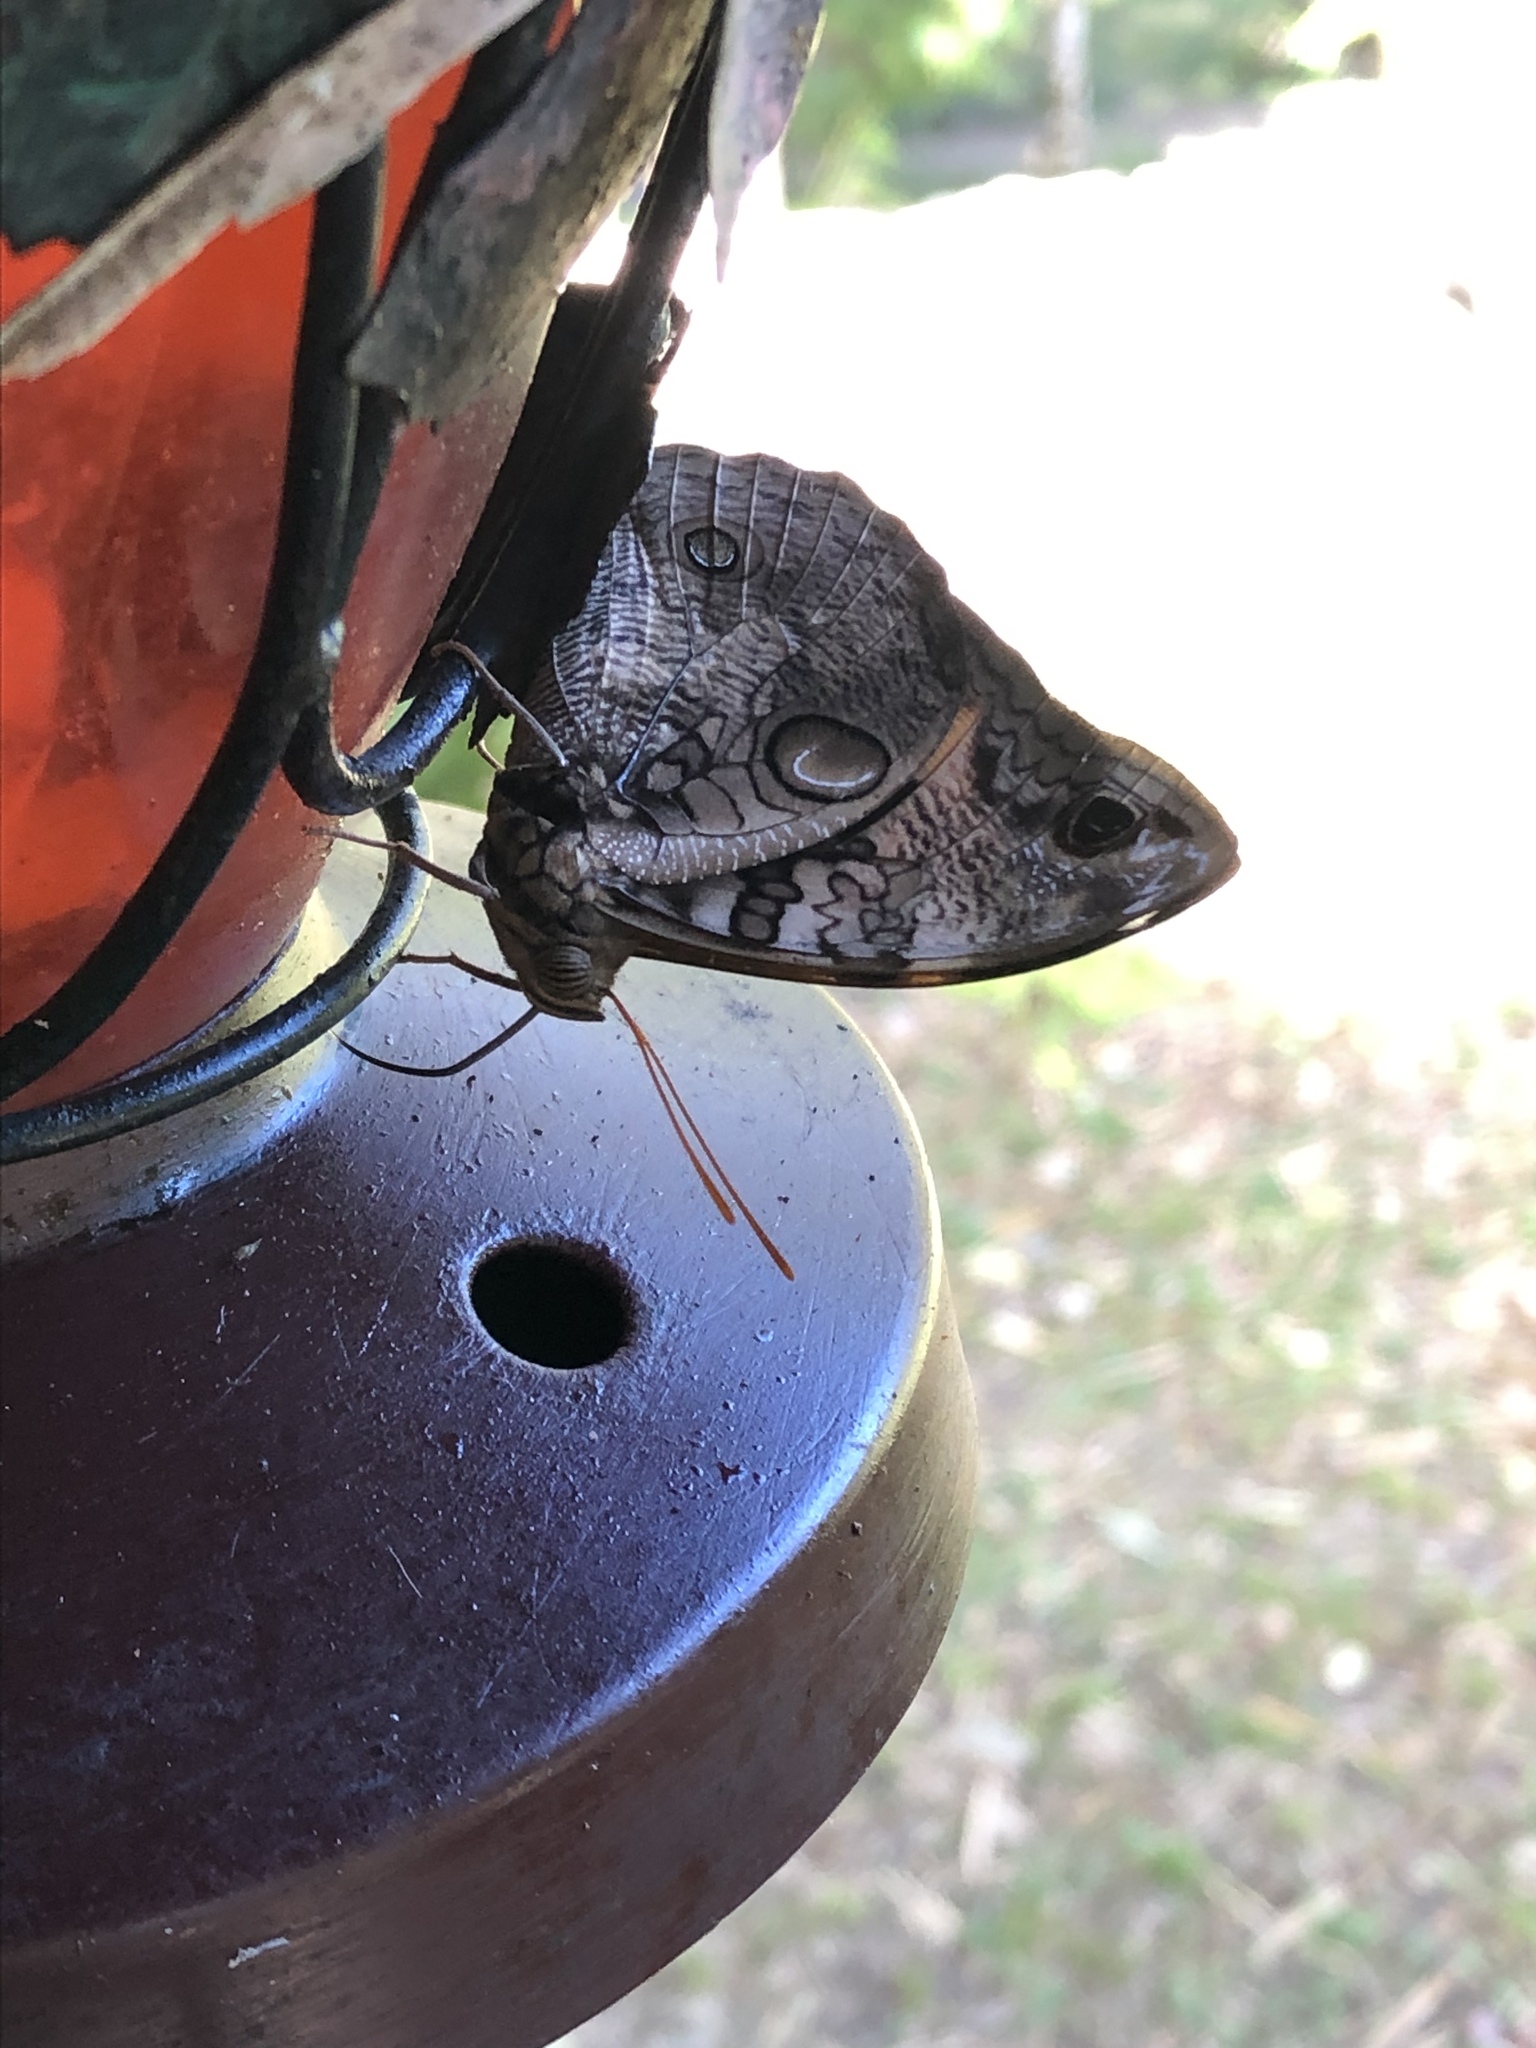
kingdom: Animalia
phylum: Arthropoda
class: Insecta
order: Lepidoptera
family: Nymphalidae
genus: Opsiphanes
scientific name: Opsiphanes cassina
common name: Split-banded owl-butterfly
